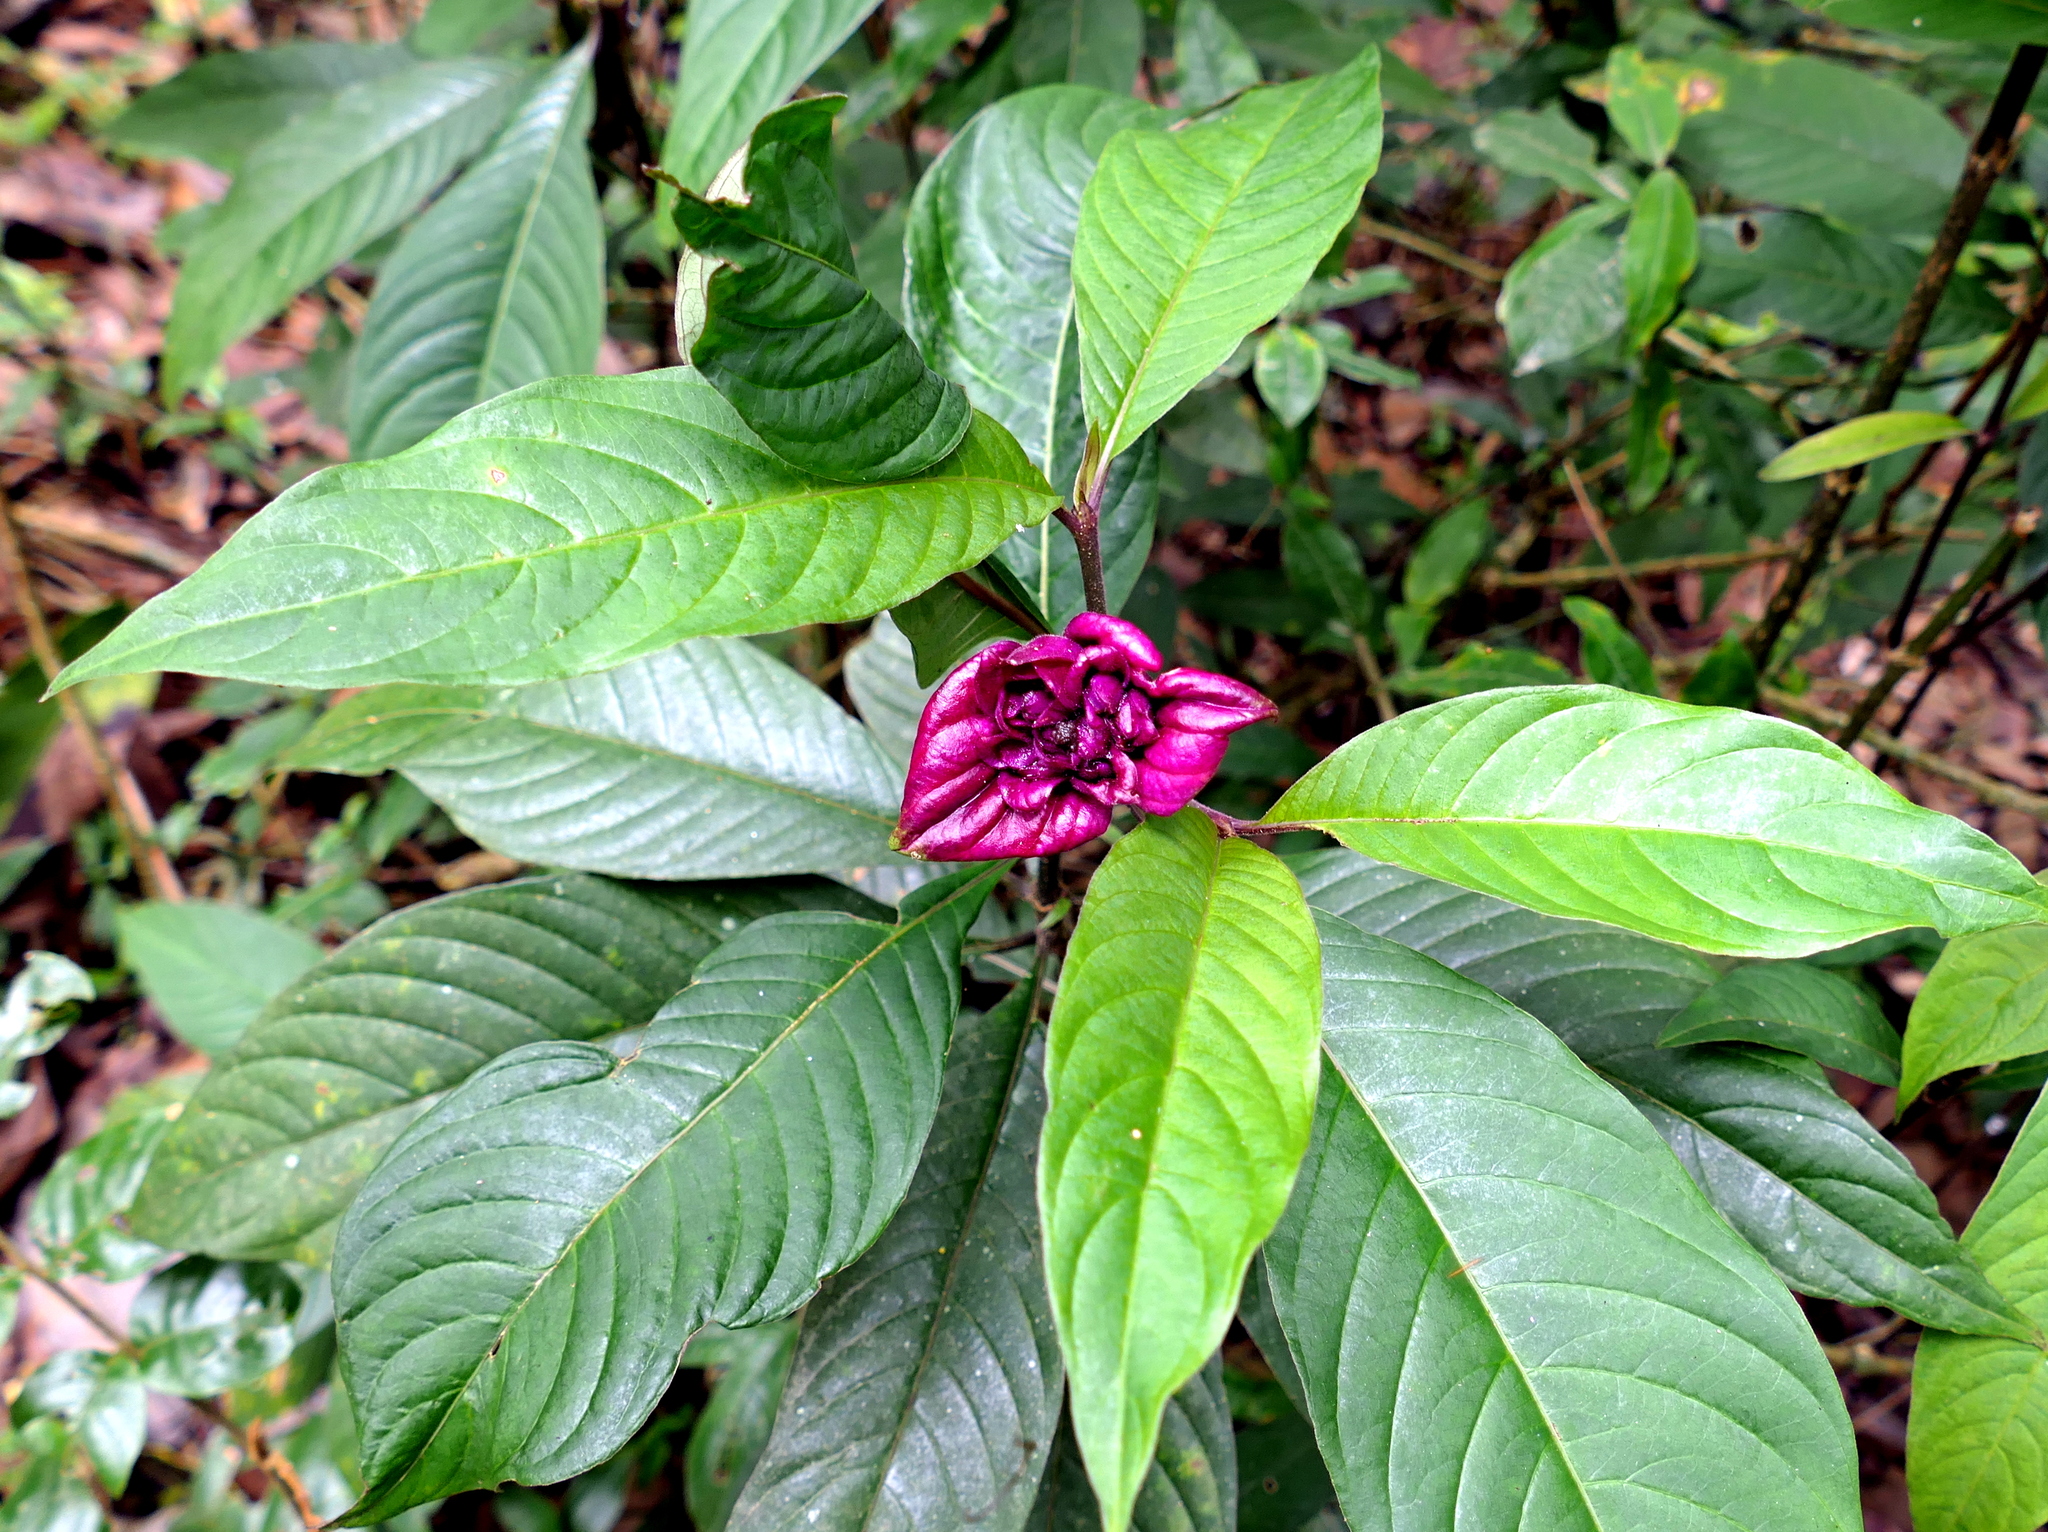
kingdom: Plantae
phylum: Tracheophyta
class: Magnoliopsida
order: Gentianales
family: Rubiaceae
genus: Palicourea
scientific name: Palicourea colorata
